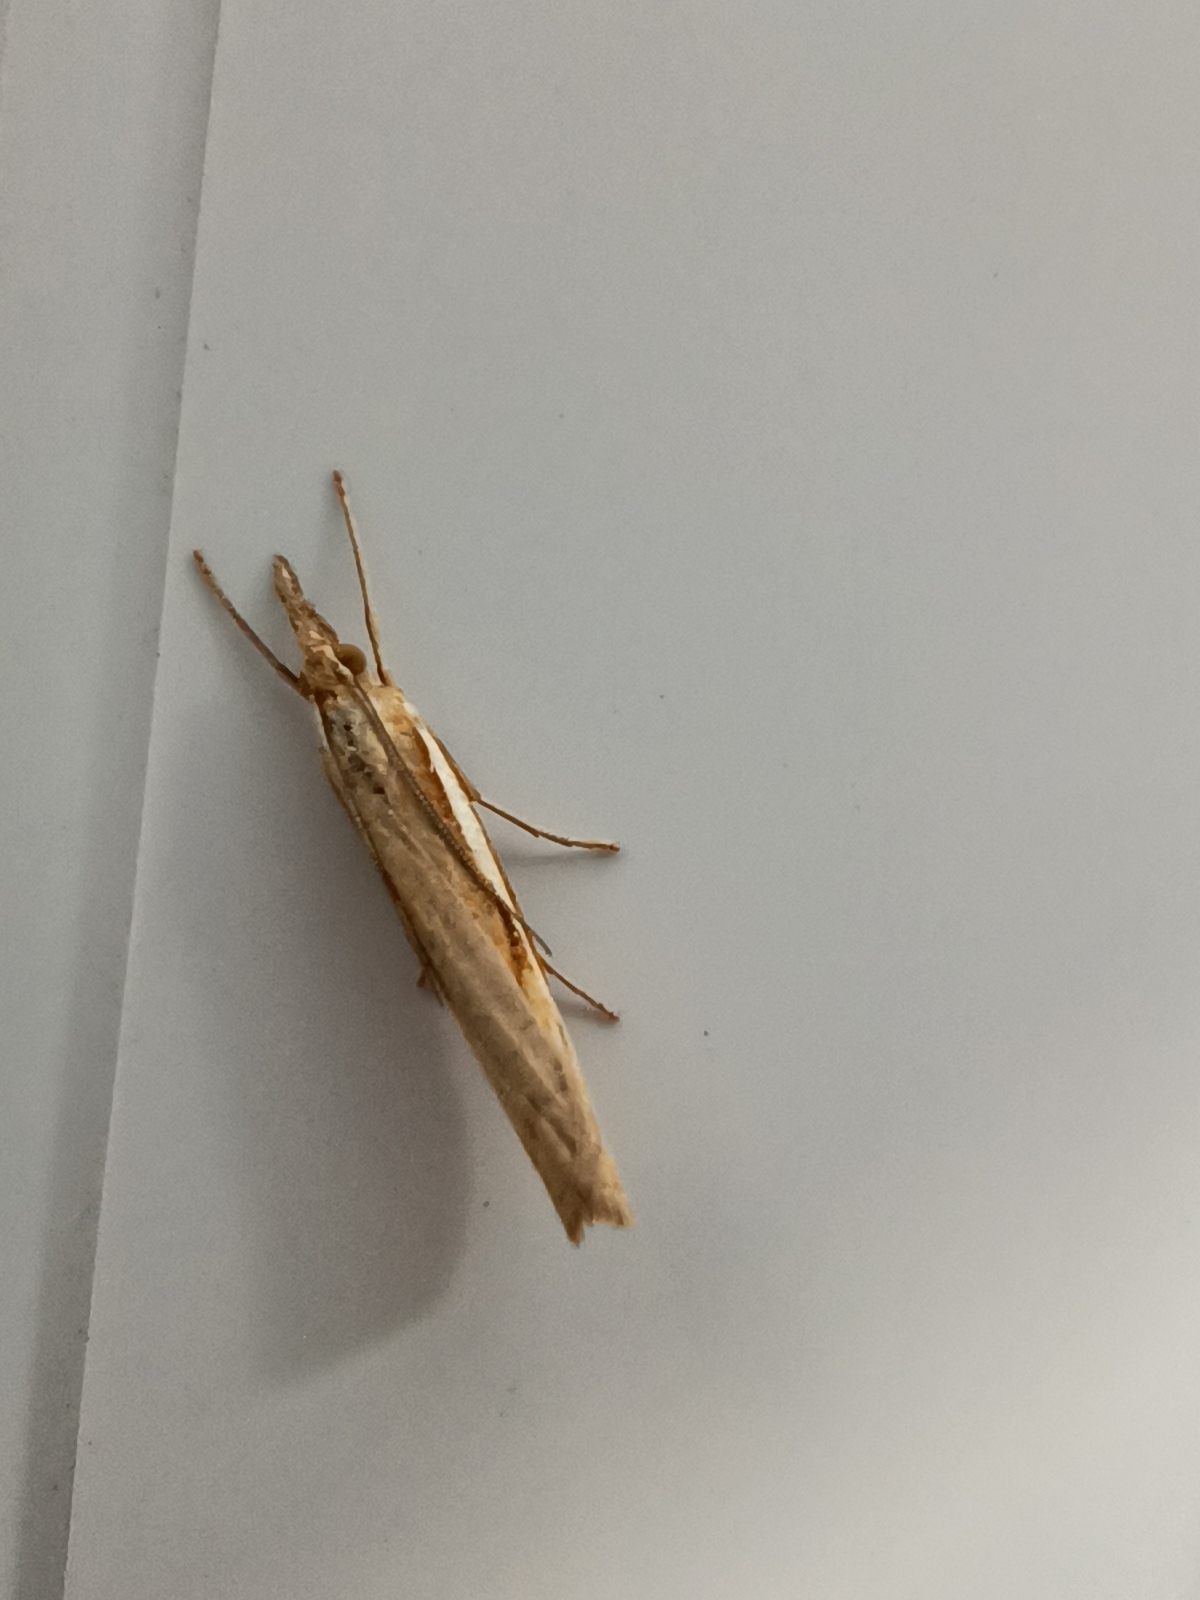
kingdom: Animalia
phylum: Arthropoda
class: Insecta
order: Lepidoptera
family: Crambidae
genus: Agriphila
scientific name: Agriphila tristellus
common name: Common grass-veneer
